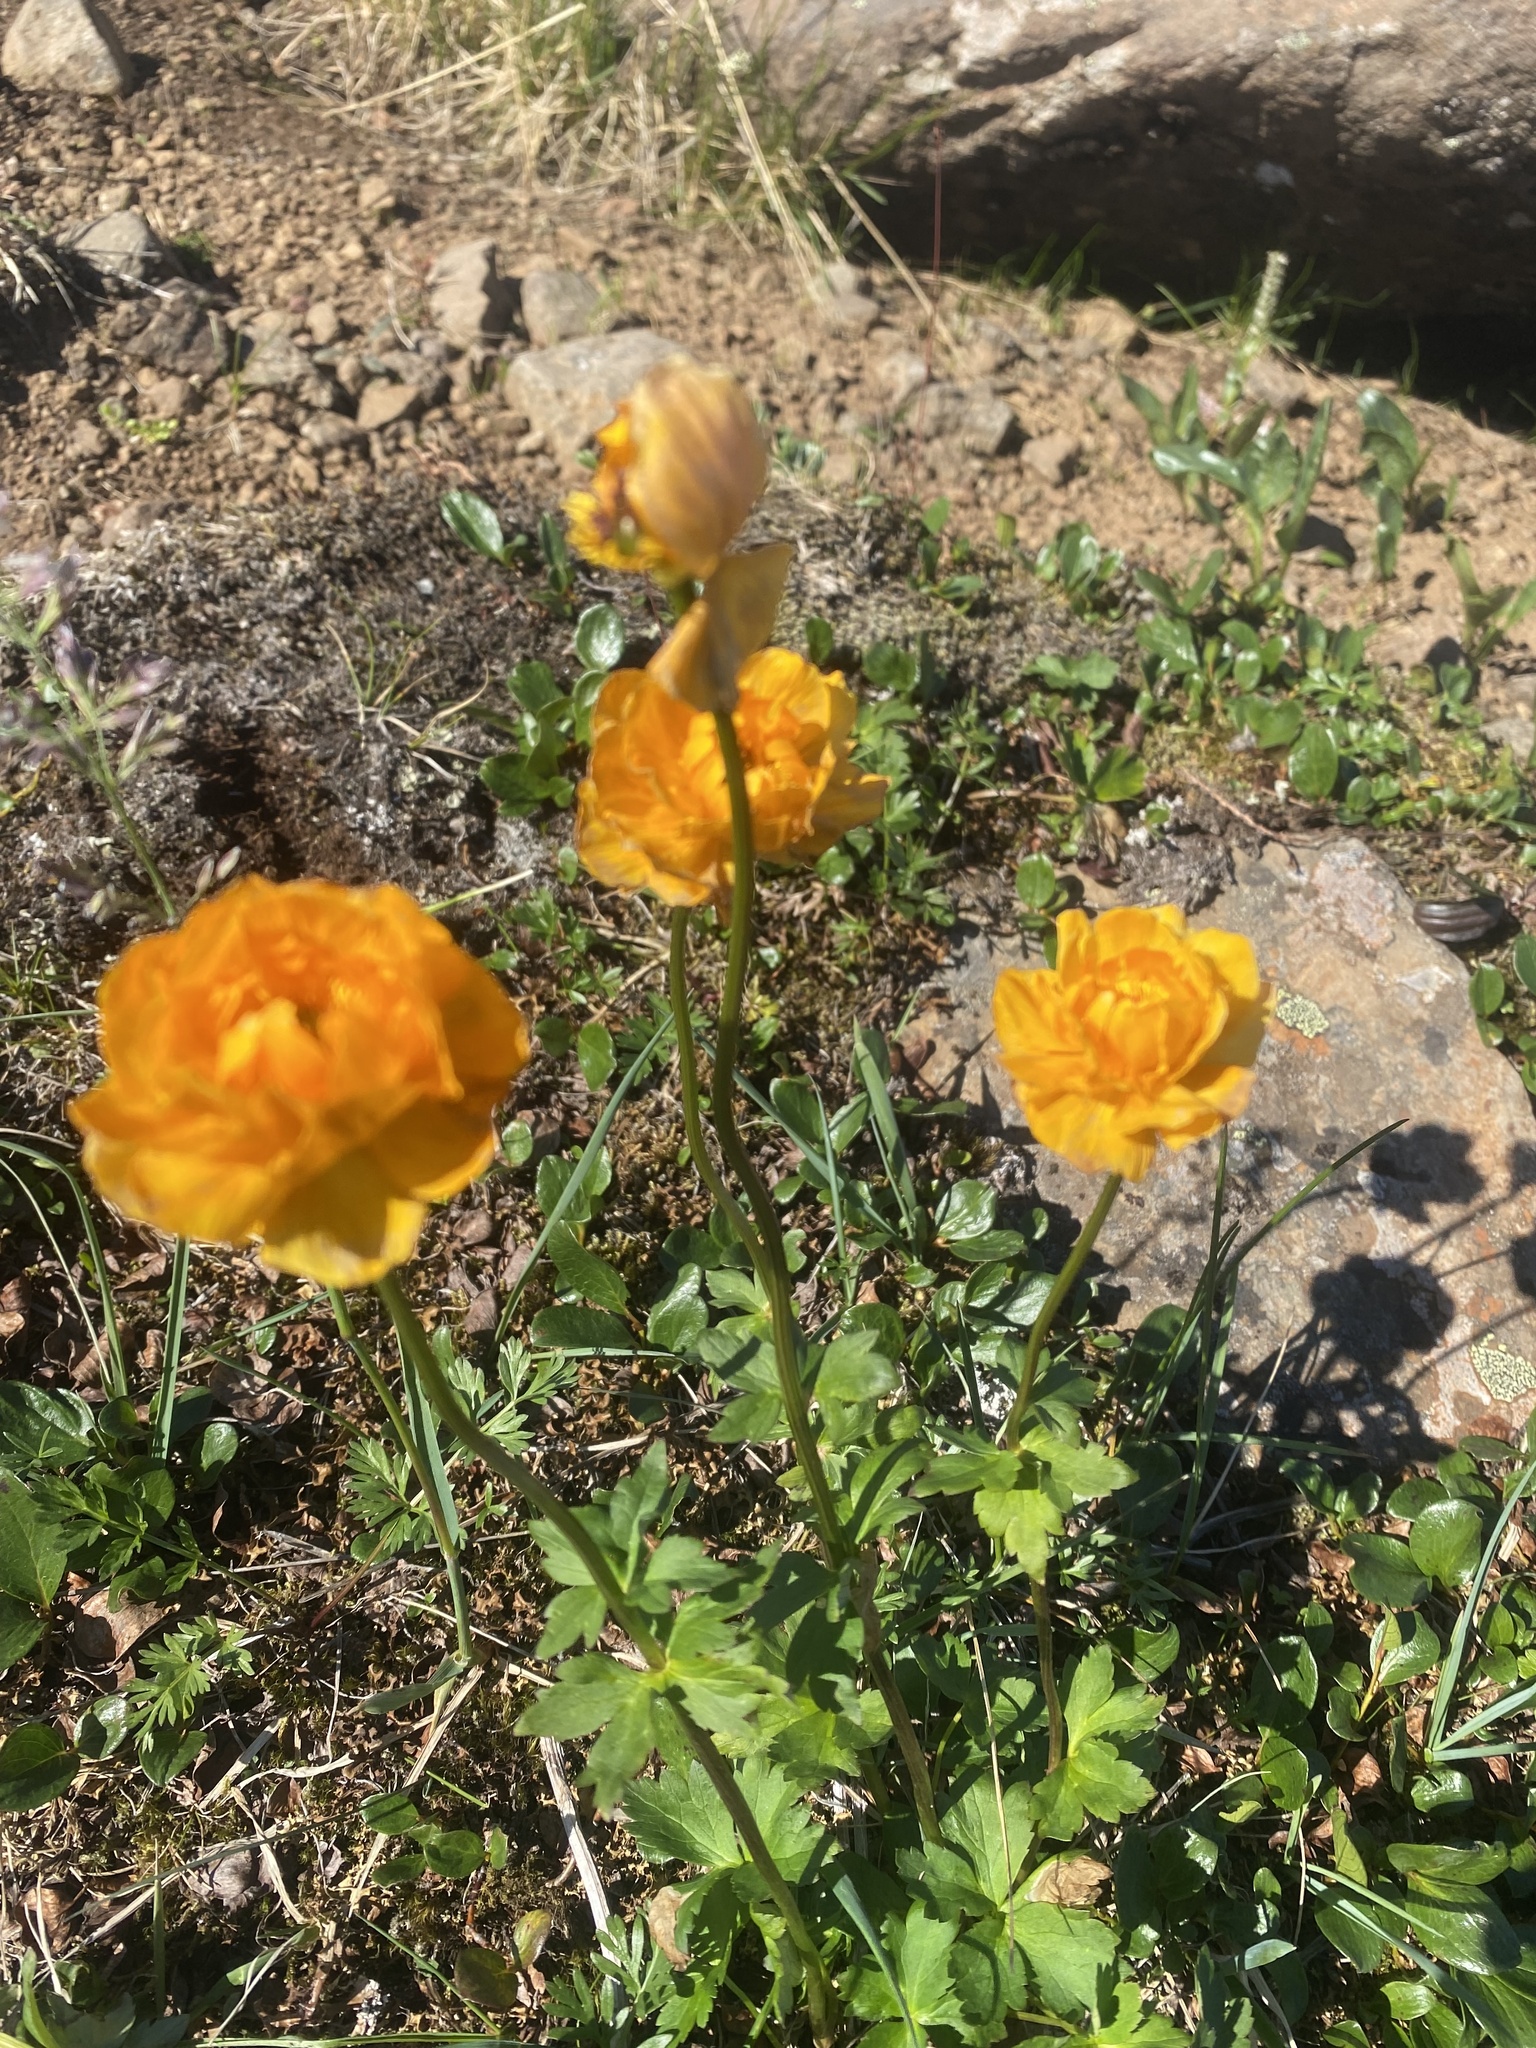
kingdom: Plantae
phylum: Tracheophyta
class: Magnoliopsida
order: Ranunculales
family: Ranunculaceae
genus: Trollius
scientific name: Trollius asiaticus
